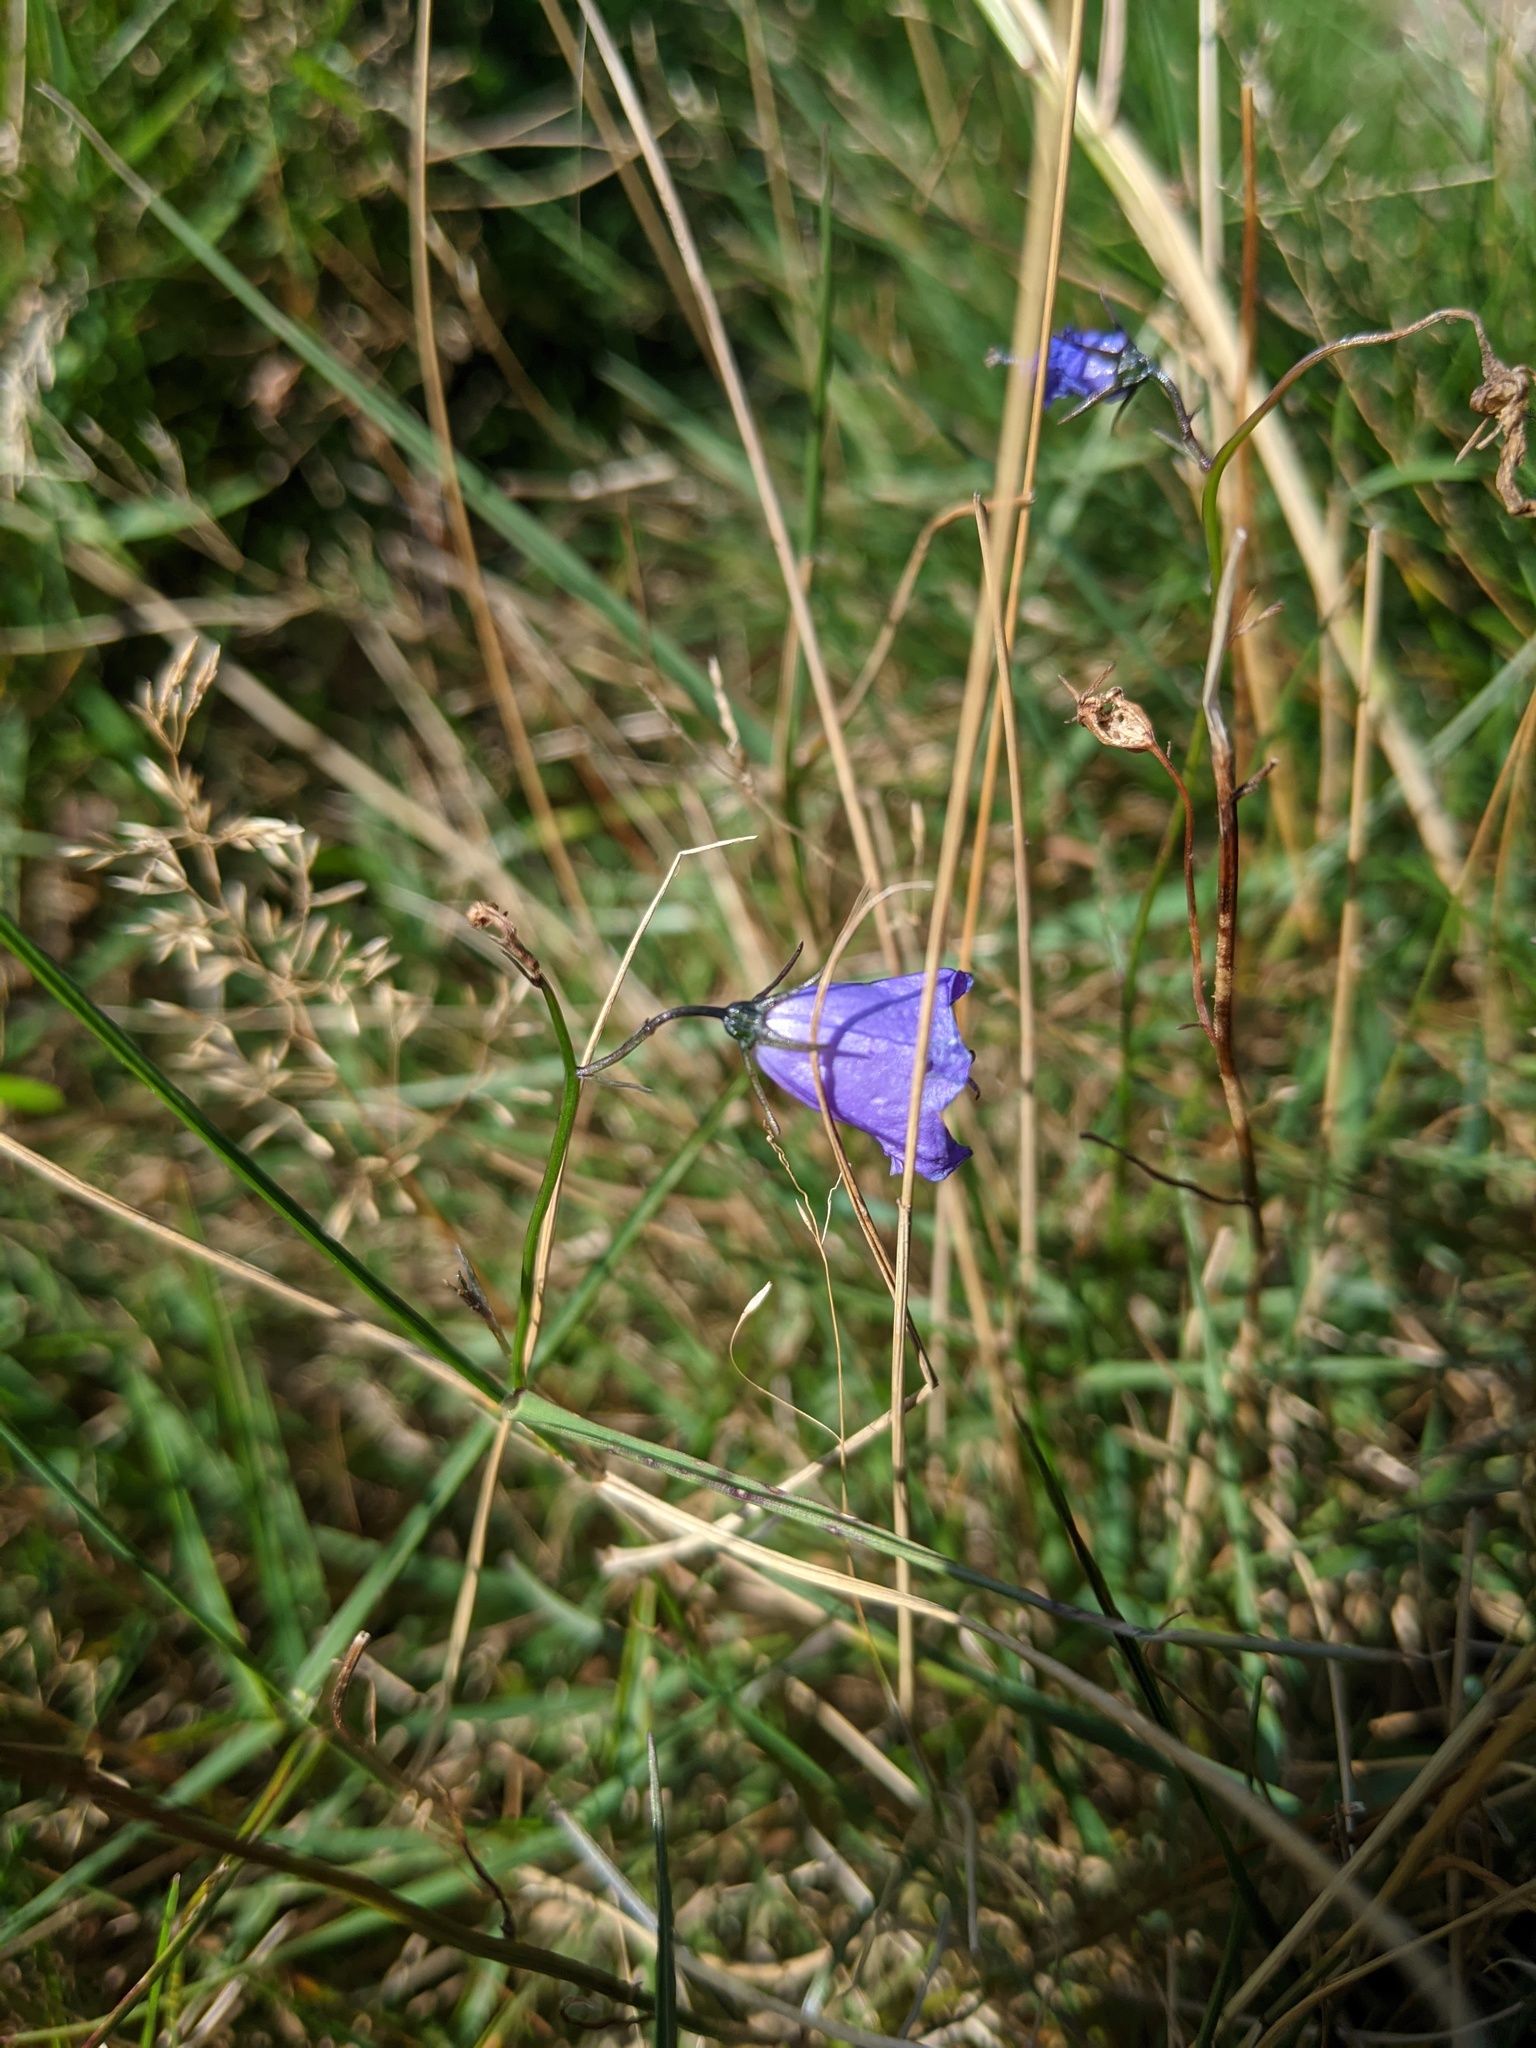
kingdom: Plantae
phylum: Tracheophyta
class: Magnoliopsida
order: Asterales
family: Campanulaceae
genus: Campanula
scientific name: Campanula rotundifolia
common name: Harebell
